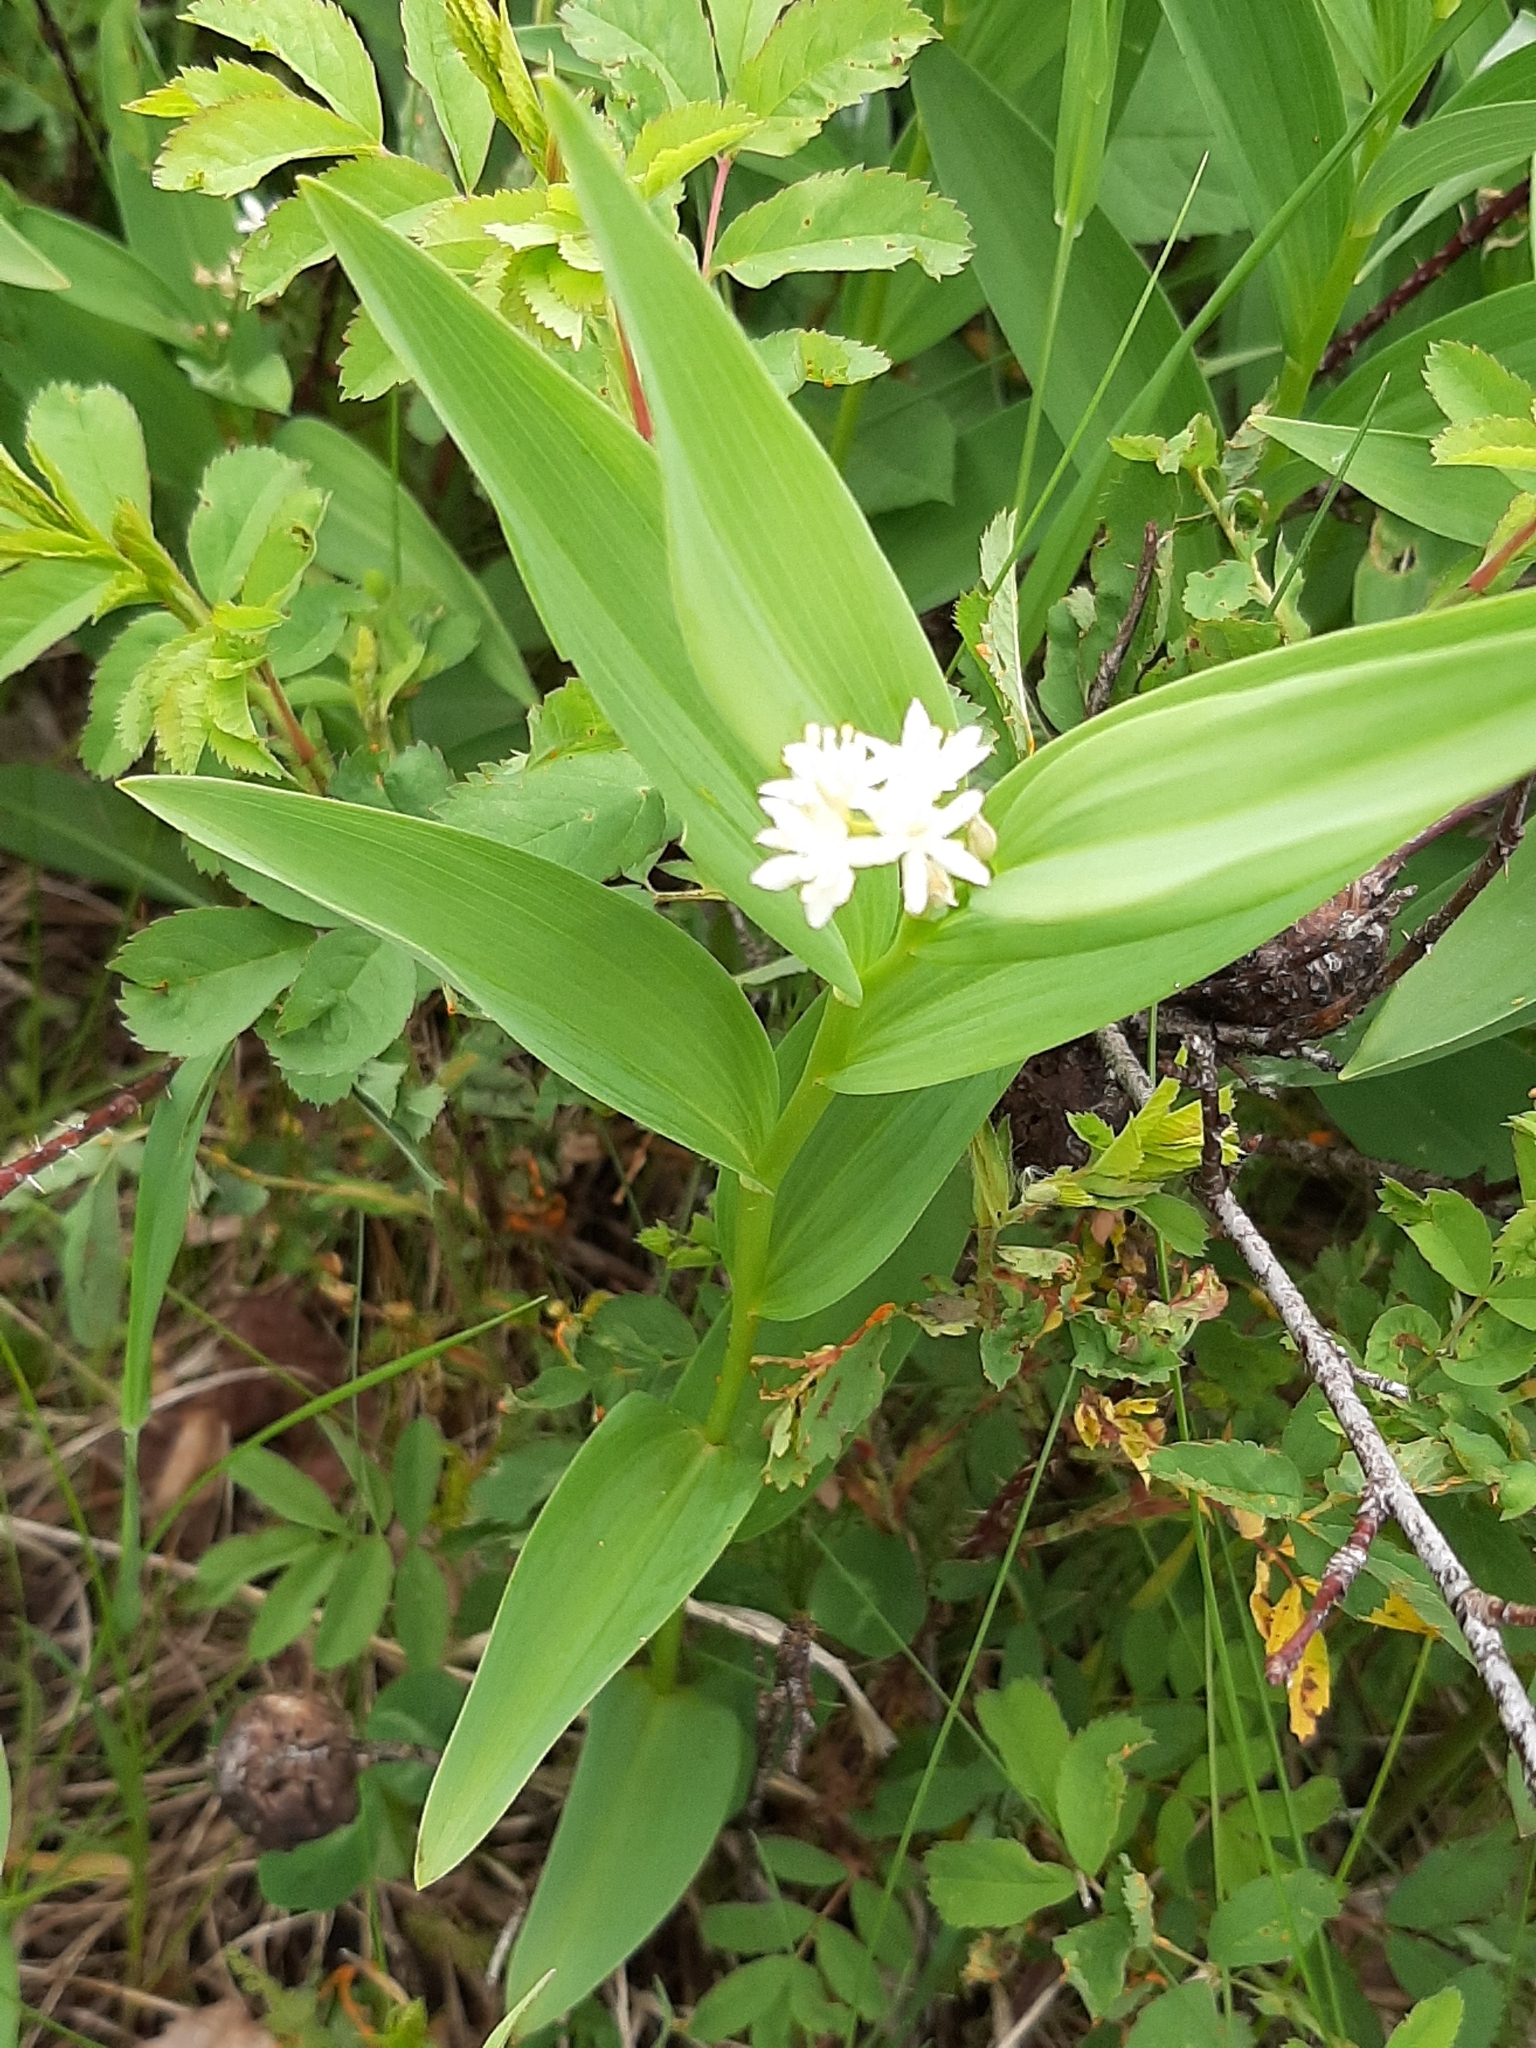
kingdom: Plantae
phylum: Tracheophyta
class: Liliopsida
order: Asparagales
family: Asparagaceae
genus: Maianthemum
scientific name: Maianthemum stellatum
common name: Little false solomon's seal
